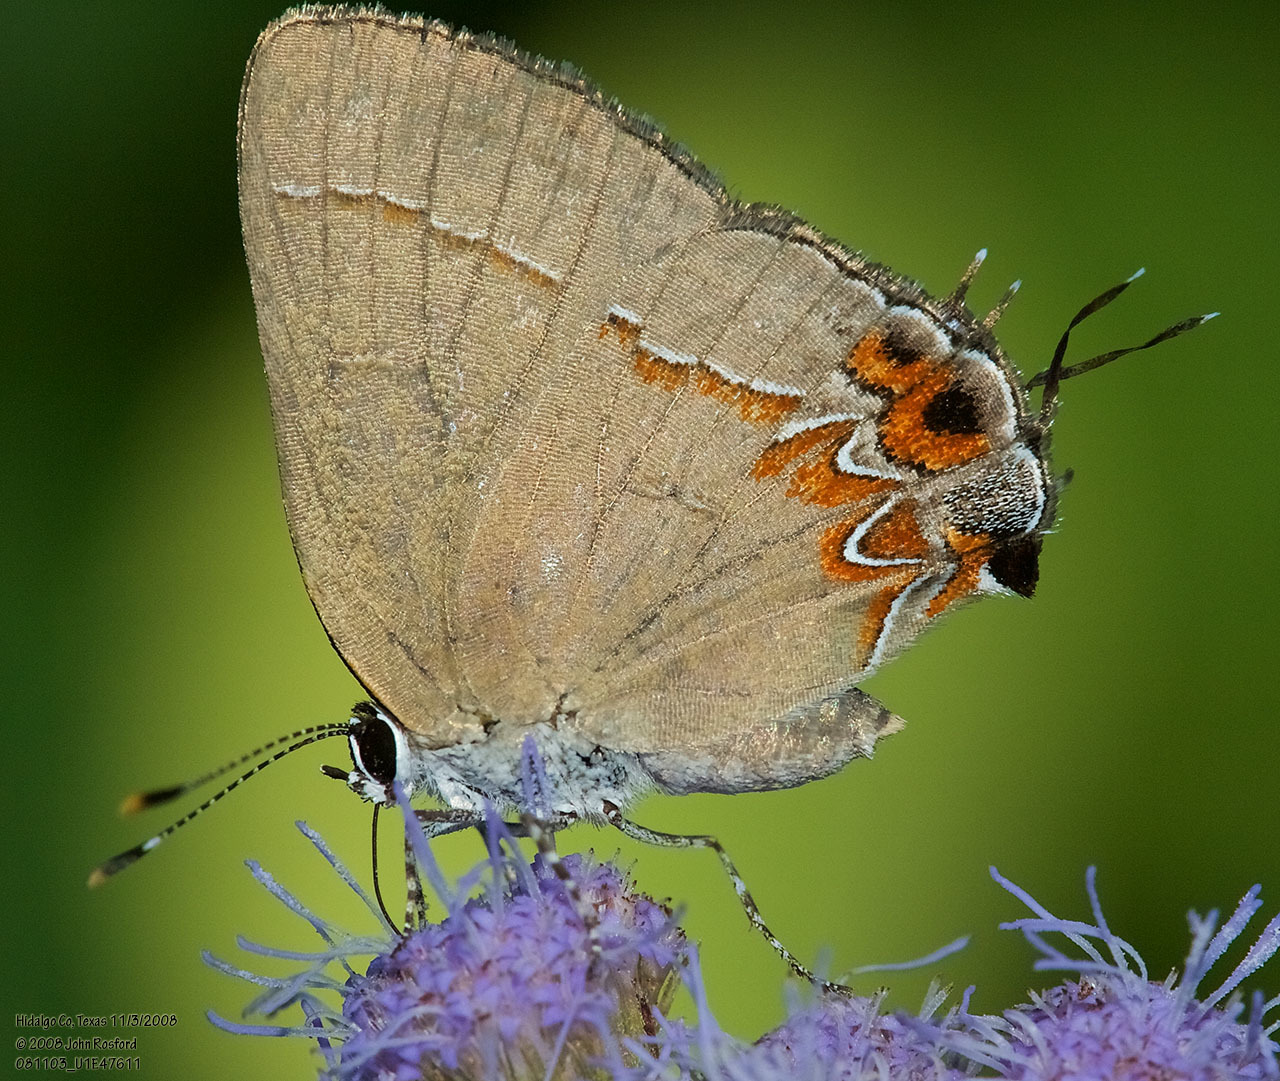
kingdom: Animalia
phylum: Arthropoda
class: Insecta
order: Lepidoptera
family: Lycaenidae
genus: Calycopis
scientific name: Calycopis isobeon
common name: Dusky-blue groundstreak
